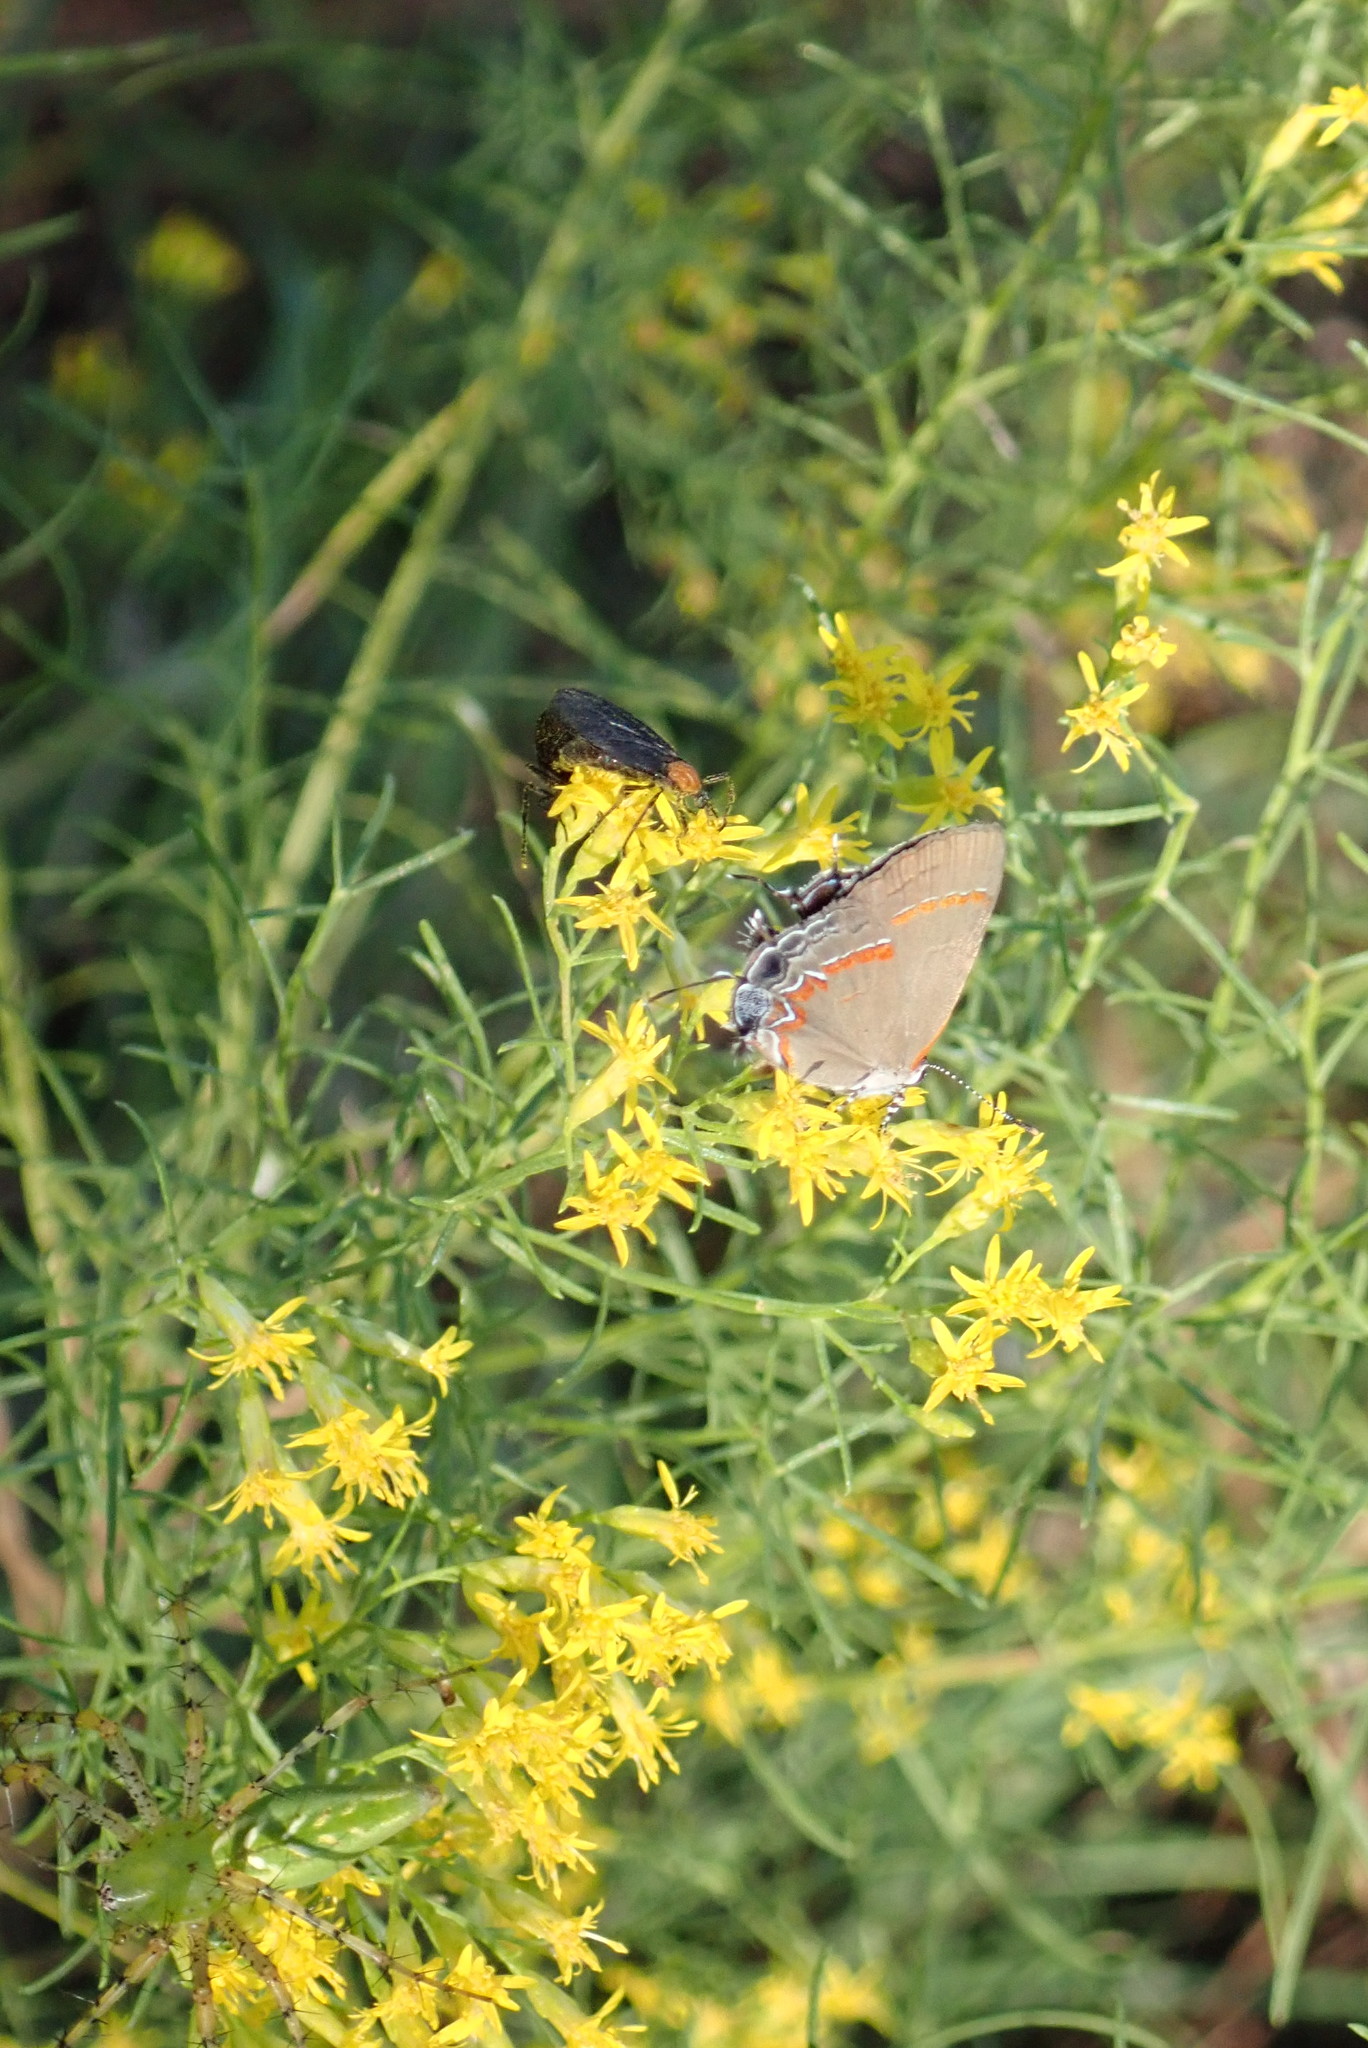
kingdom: Animalia
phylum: Arthropoda
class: Insecta
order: Lepidoptera
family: Lycaenidae
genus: Calycopis
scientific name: Calycopis cecrops
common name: Red-banded hairstreak
